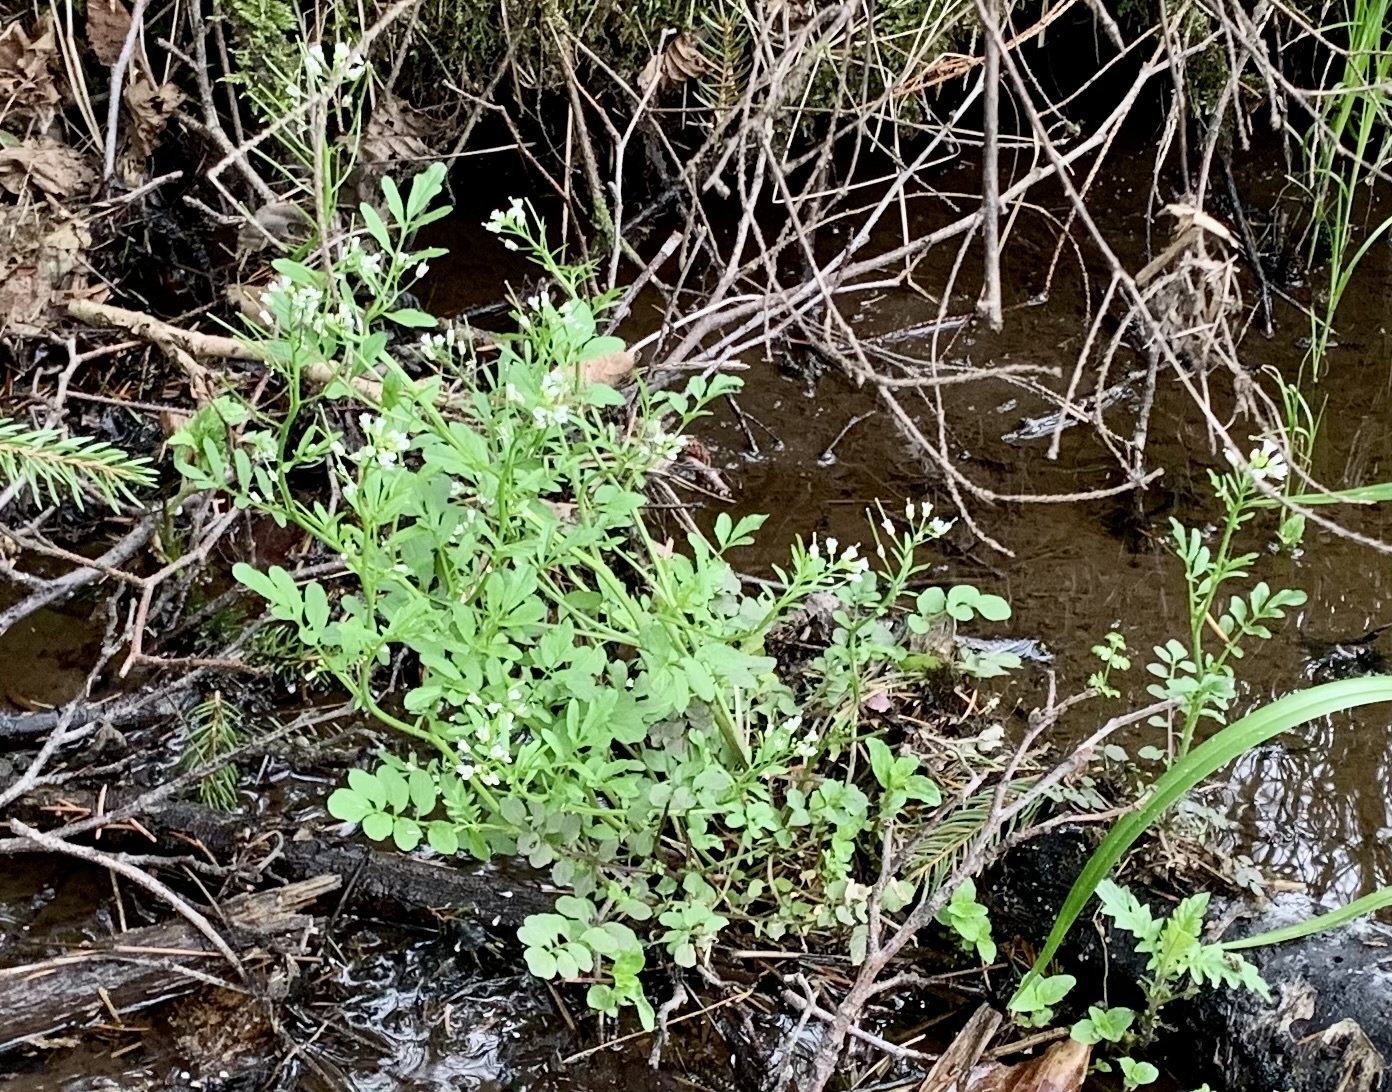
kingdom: Plantae
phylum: Tracheophyta
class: Magnoliopsida
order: Brassicales
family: Brassicaceae
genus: Cardamine
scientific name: Cardamine flexuosa
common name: Woodland bittercress
